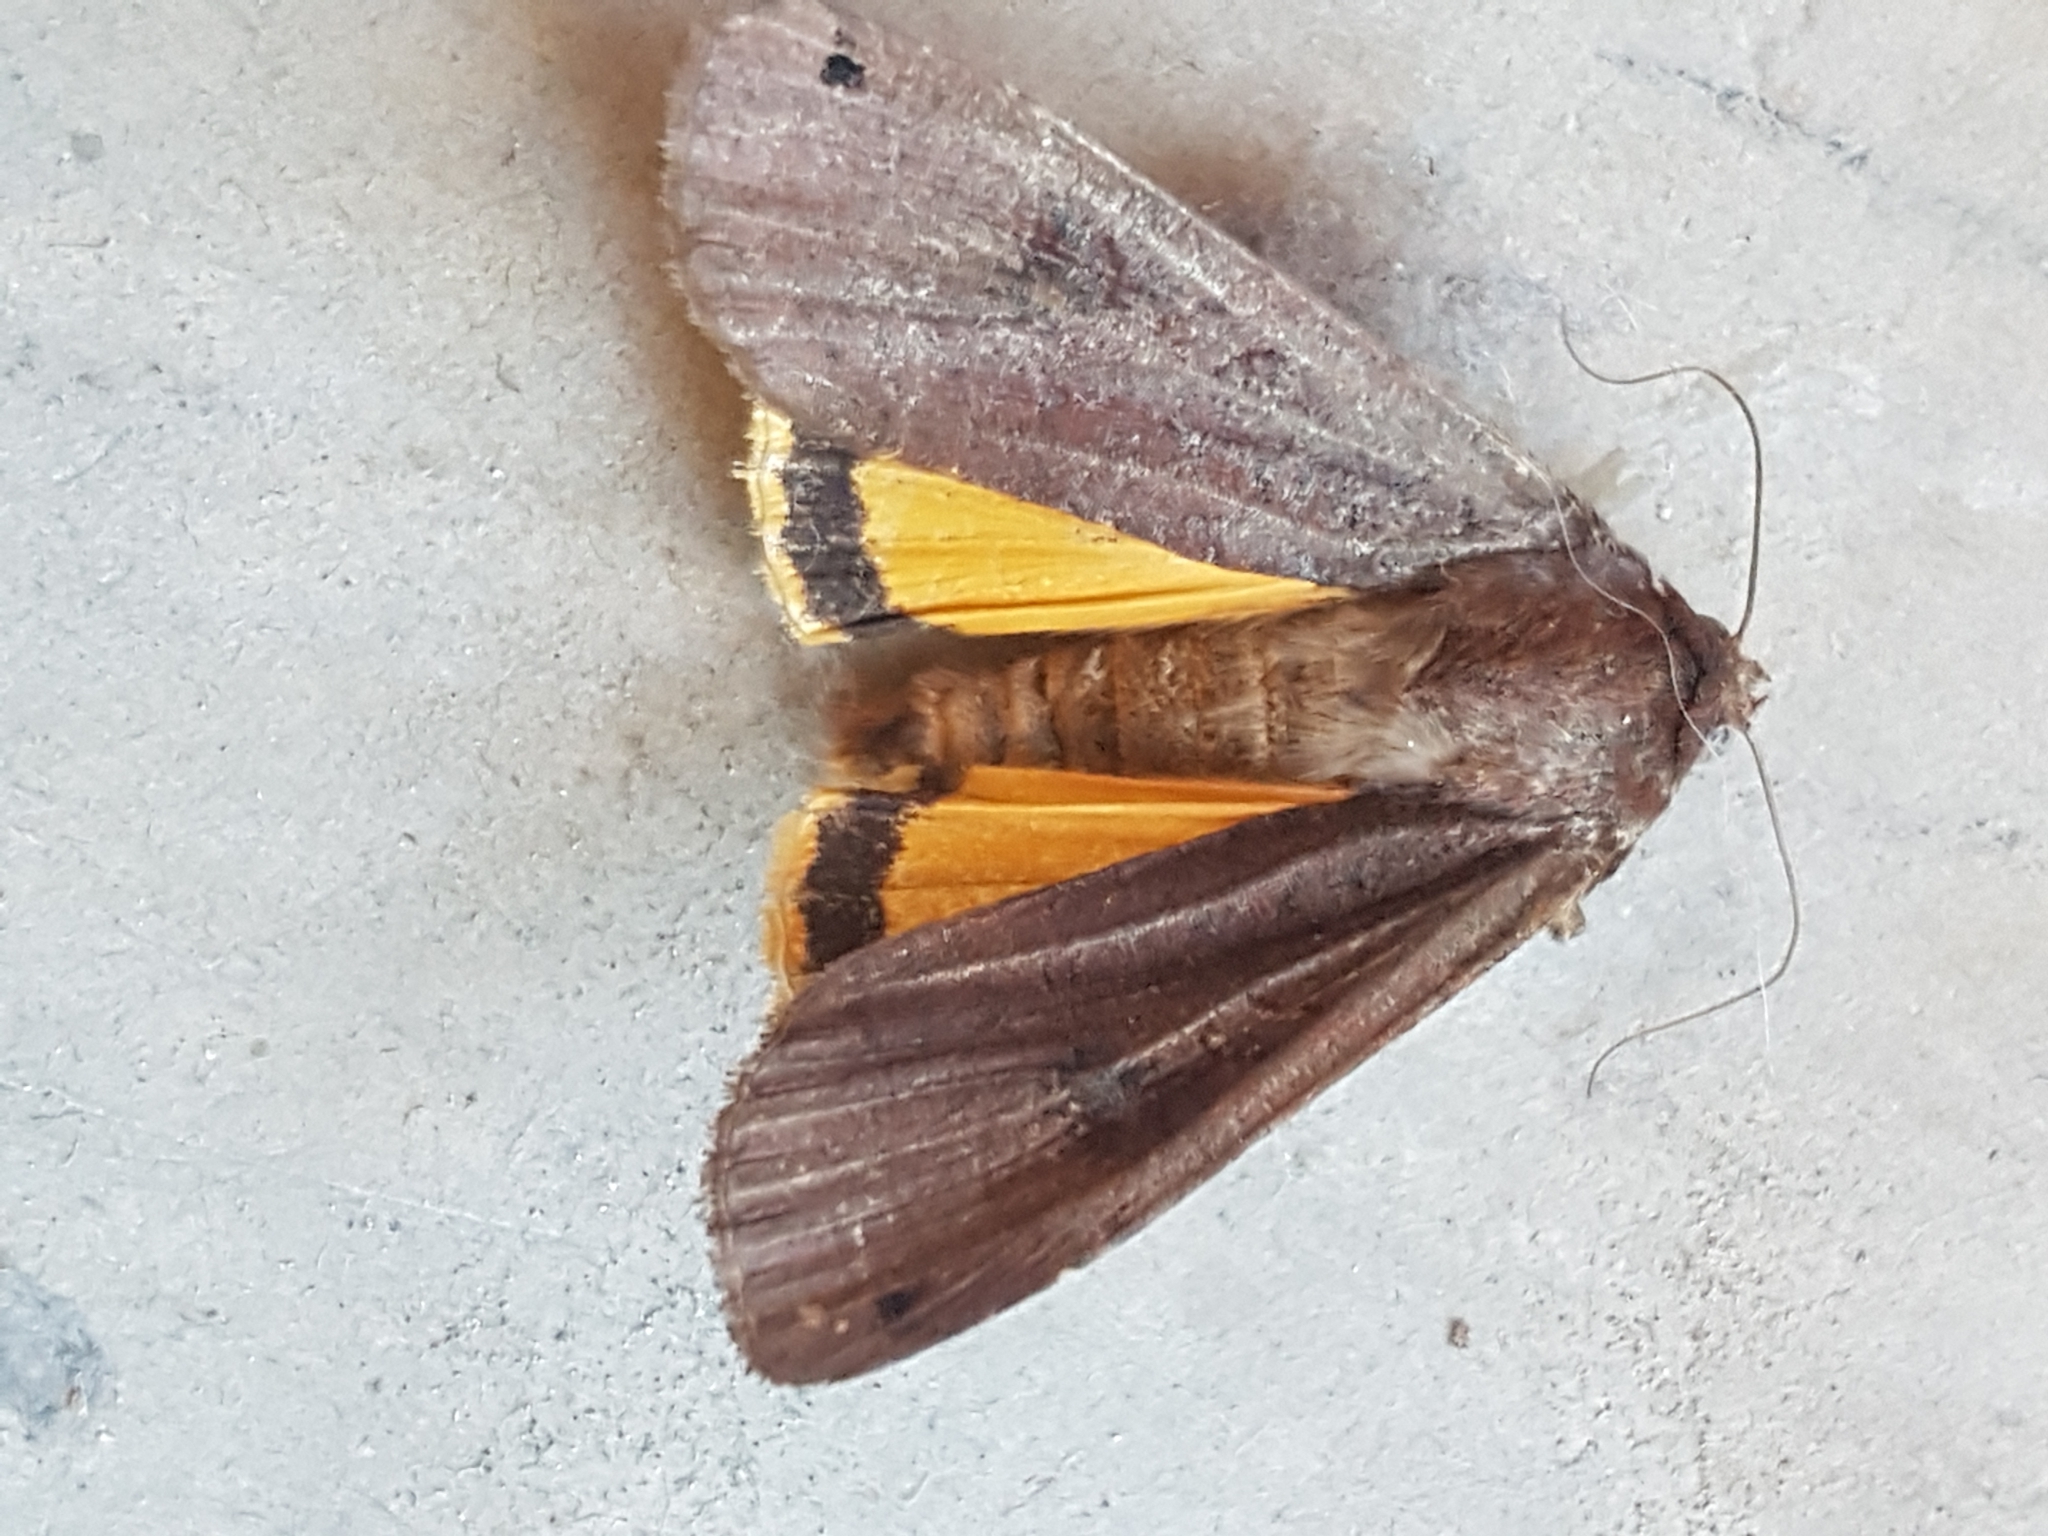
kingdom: Animalia
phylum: Arthropoda
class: Insecta
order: Lepidoptera
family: Noctuidae
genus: Noctua
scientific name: Noctua pronuba
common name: Large yellow underwing
